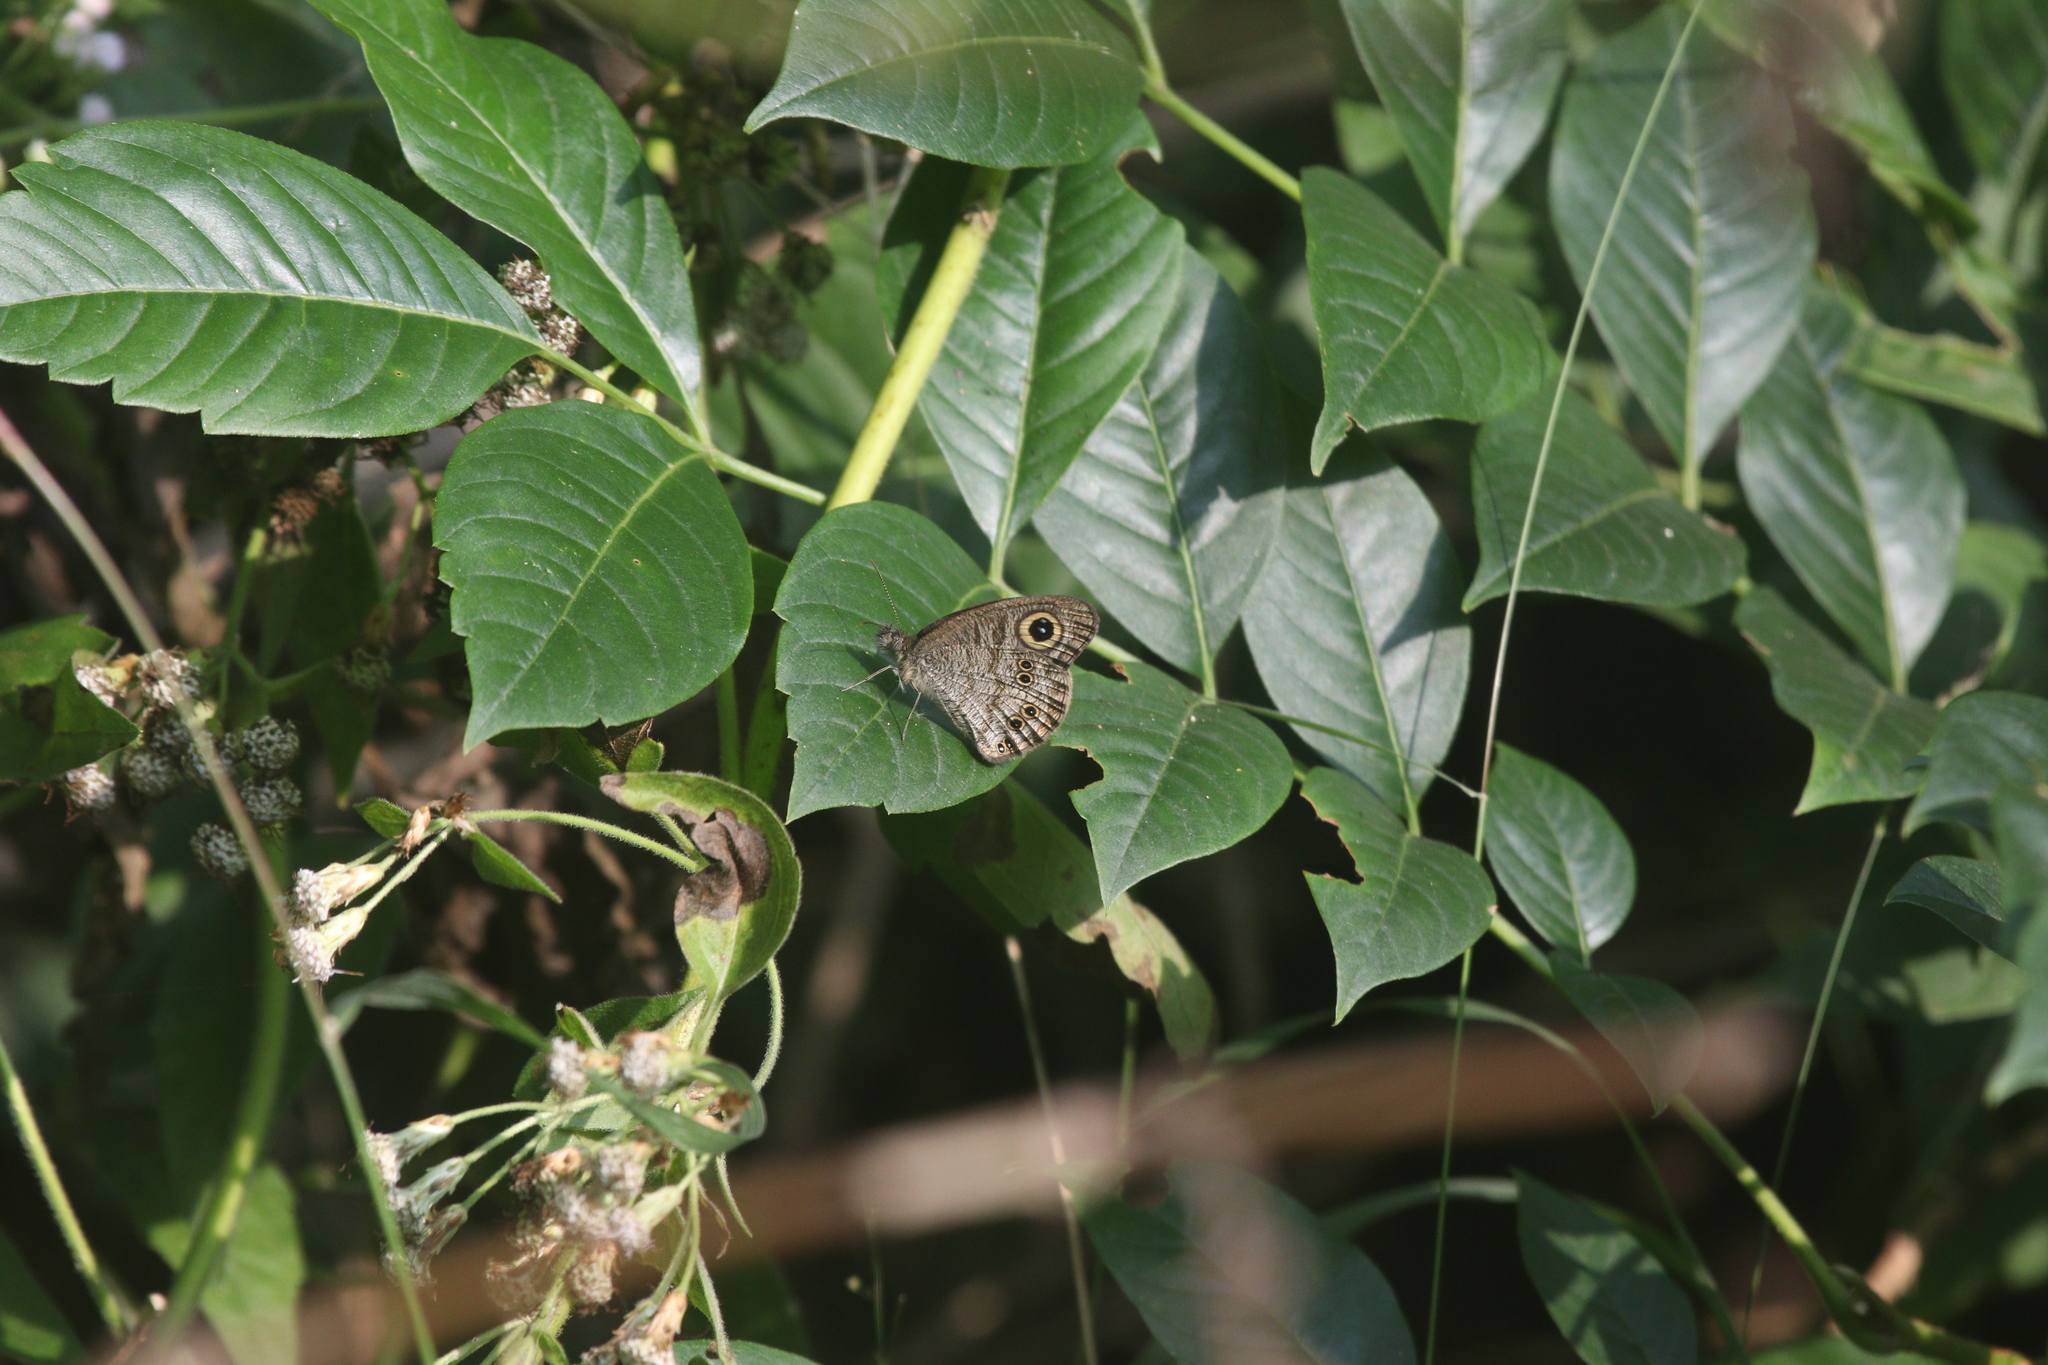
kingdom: Animalia
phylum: Arthropoda
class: Insecta
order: Lepidoptera
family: Nymphalidae
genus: Ypthima
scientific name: Ypthima baldus
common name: Common five-ring
